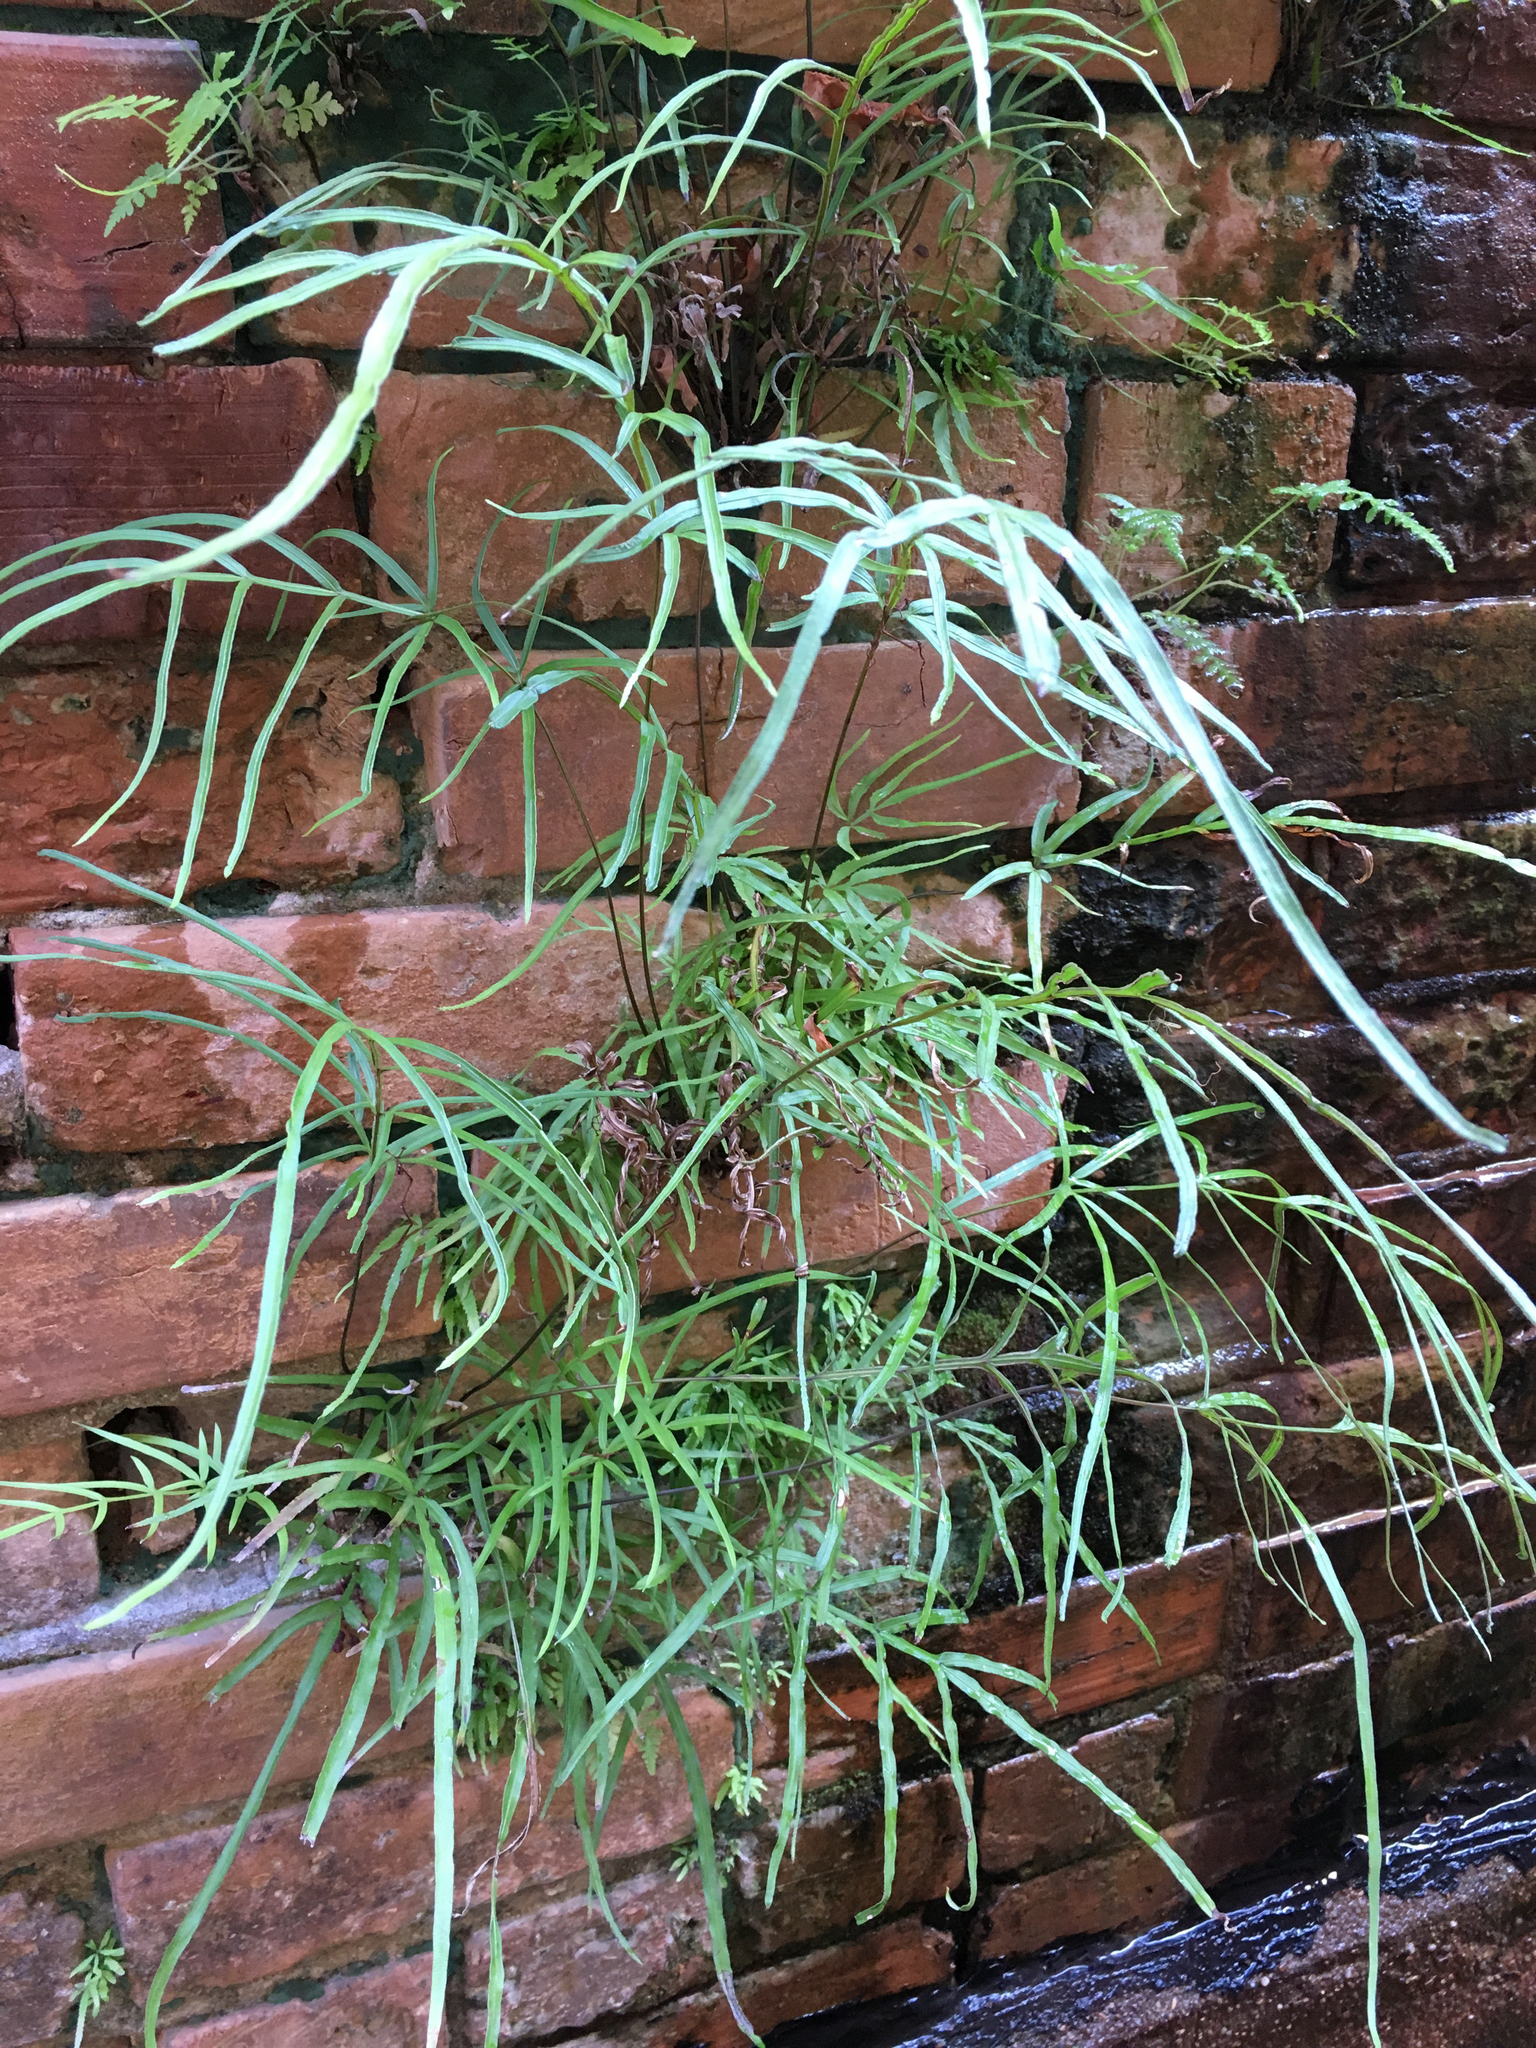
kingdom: Plantae
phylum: Tracheophyta
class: Polypodiopsida
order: Polypodiales
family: Pteridaceae
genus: Pteris
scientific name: Pteris multifida
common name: Spider brake
